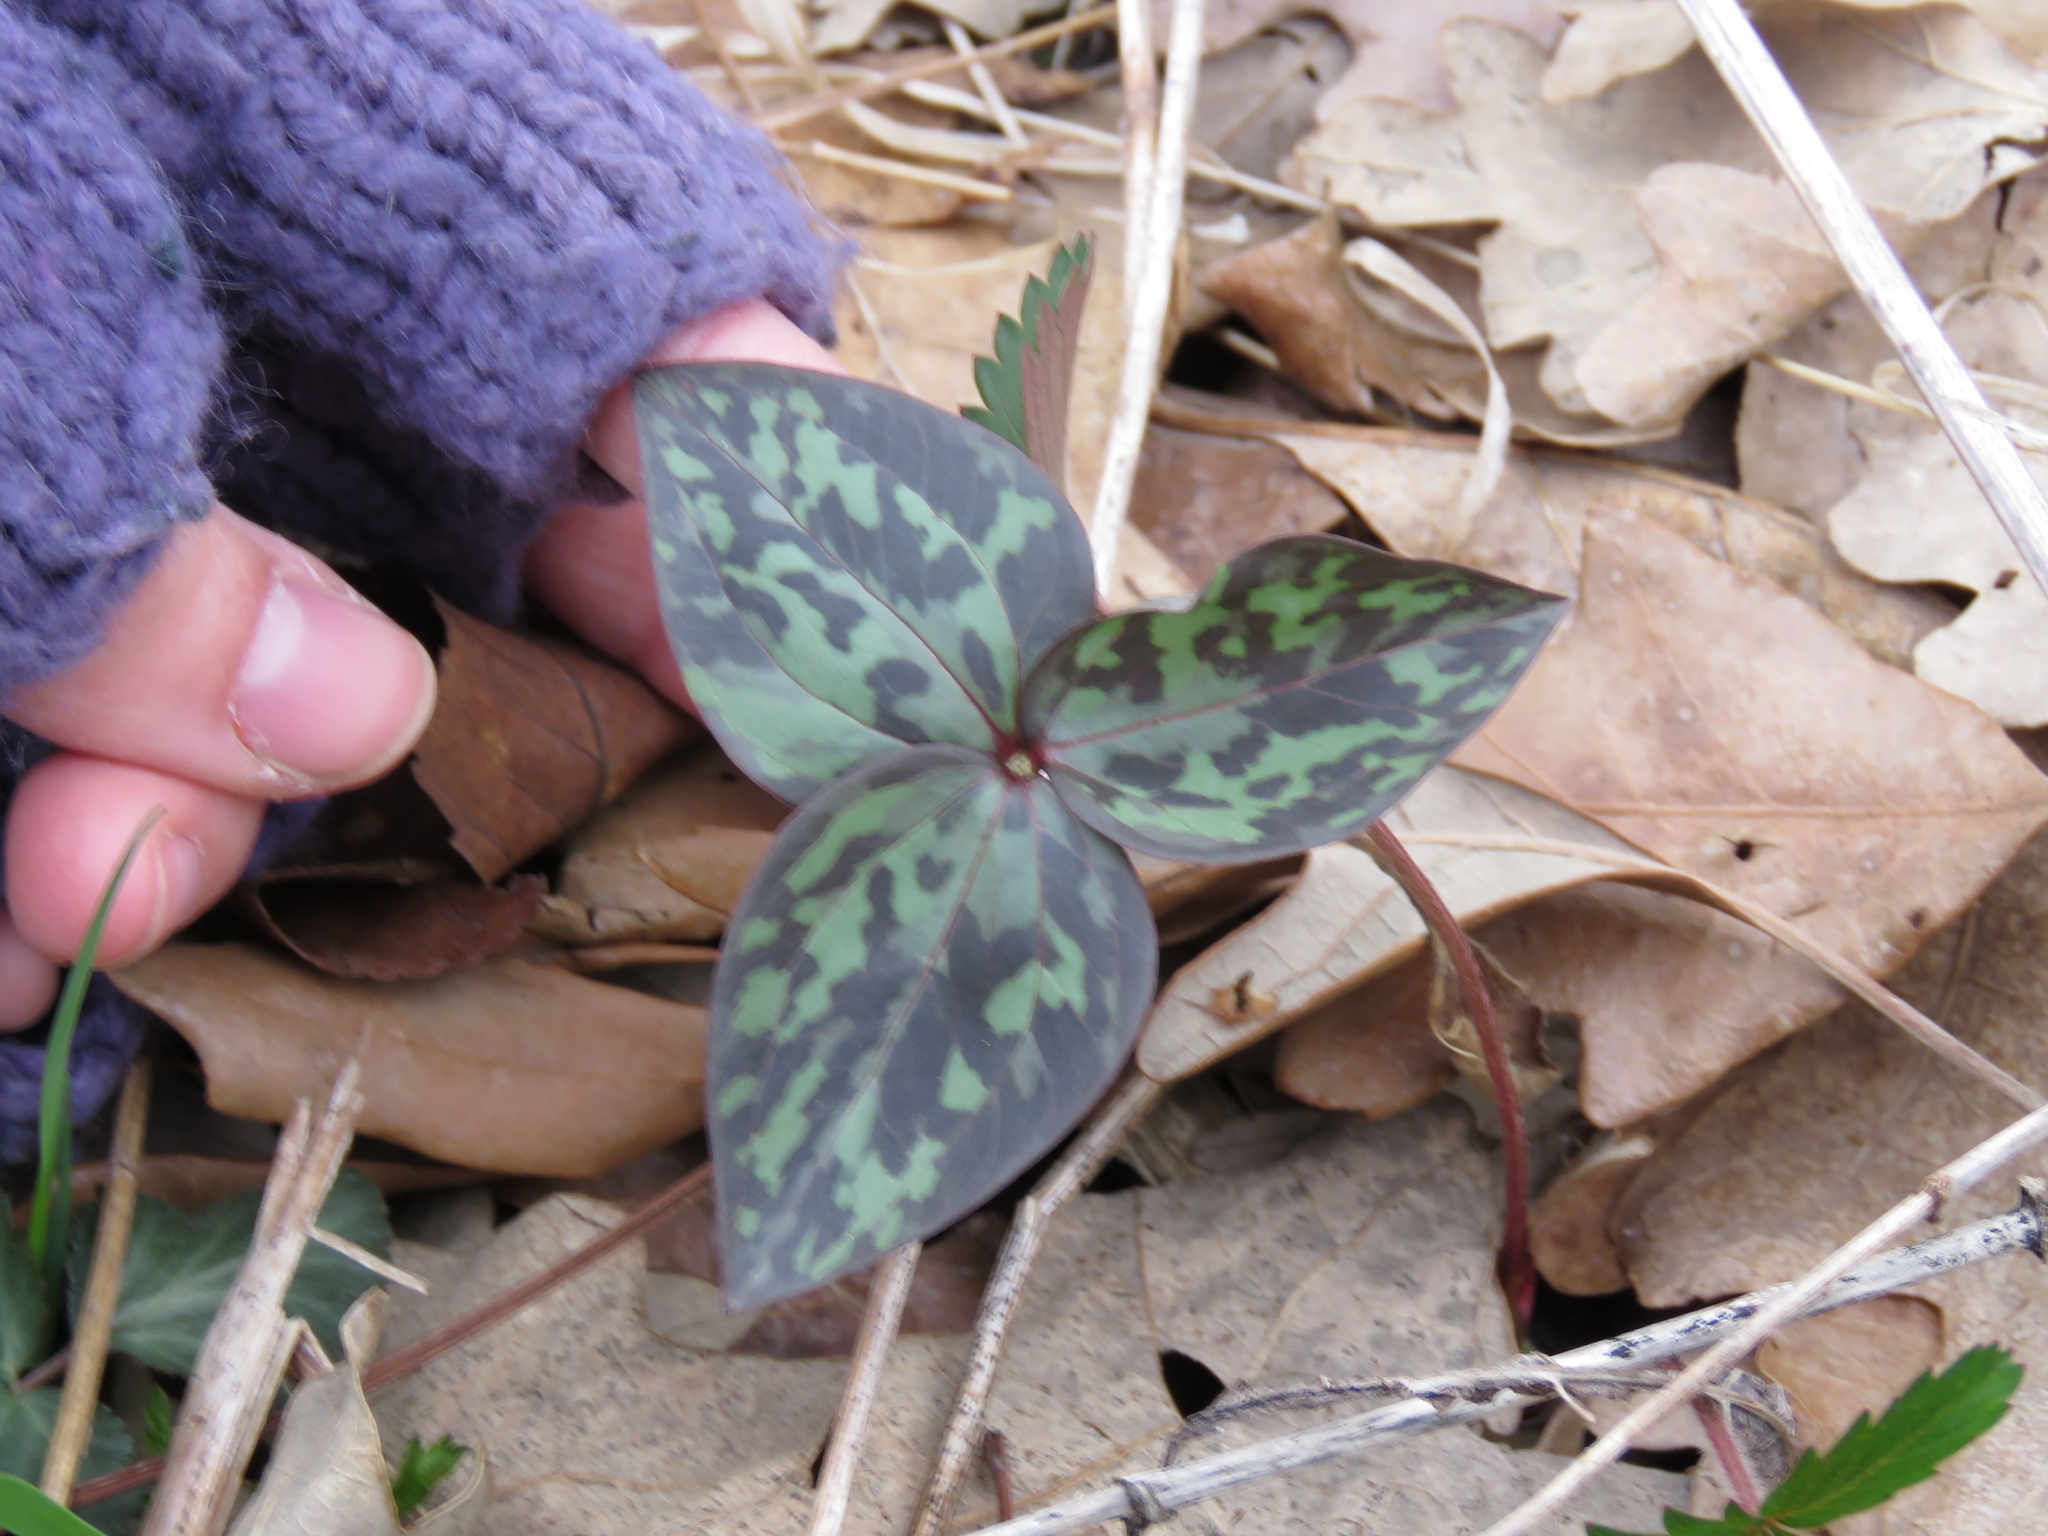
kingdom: Plantae
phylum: Tracheophyta
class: Liliopsida
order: Liliales
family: Melanthiaceae
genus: Trillium
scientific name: Trillium recurvatum
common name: Bloody butcher
